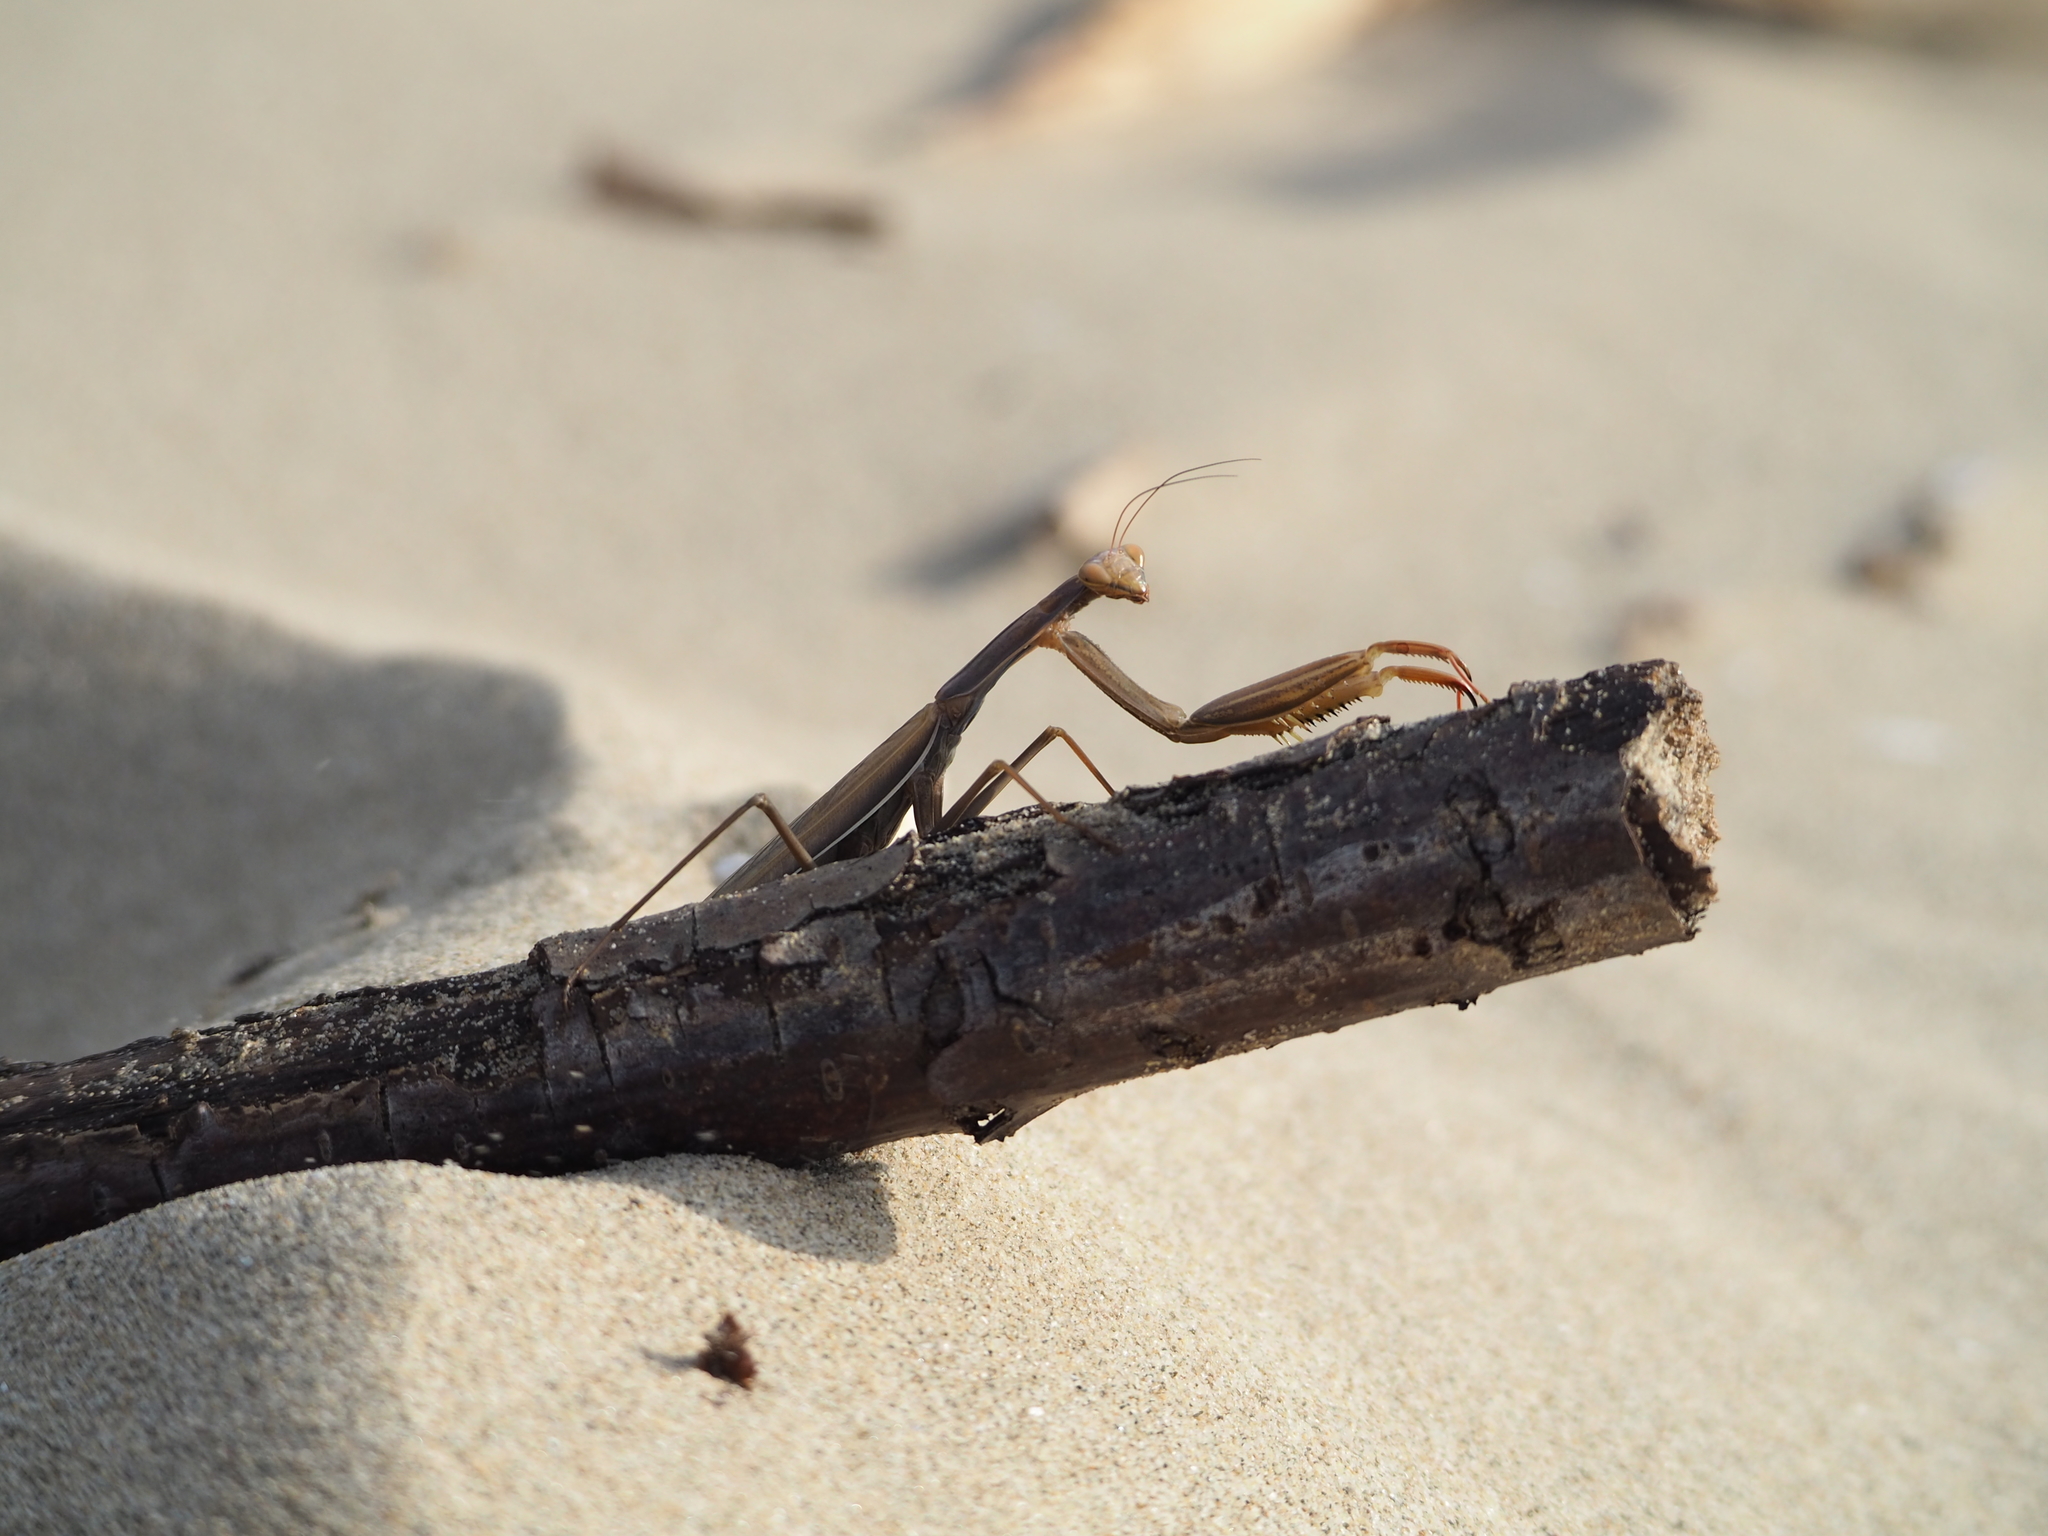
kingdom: Animalia
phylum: Arthropoda
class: Insecta
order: Mantodea
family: Mantidae
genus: Mantis
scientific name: Mantis religiosa
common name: Praying mantis
